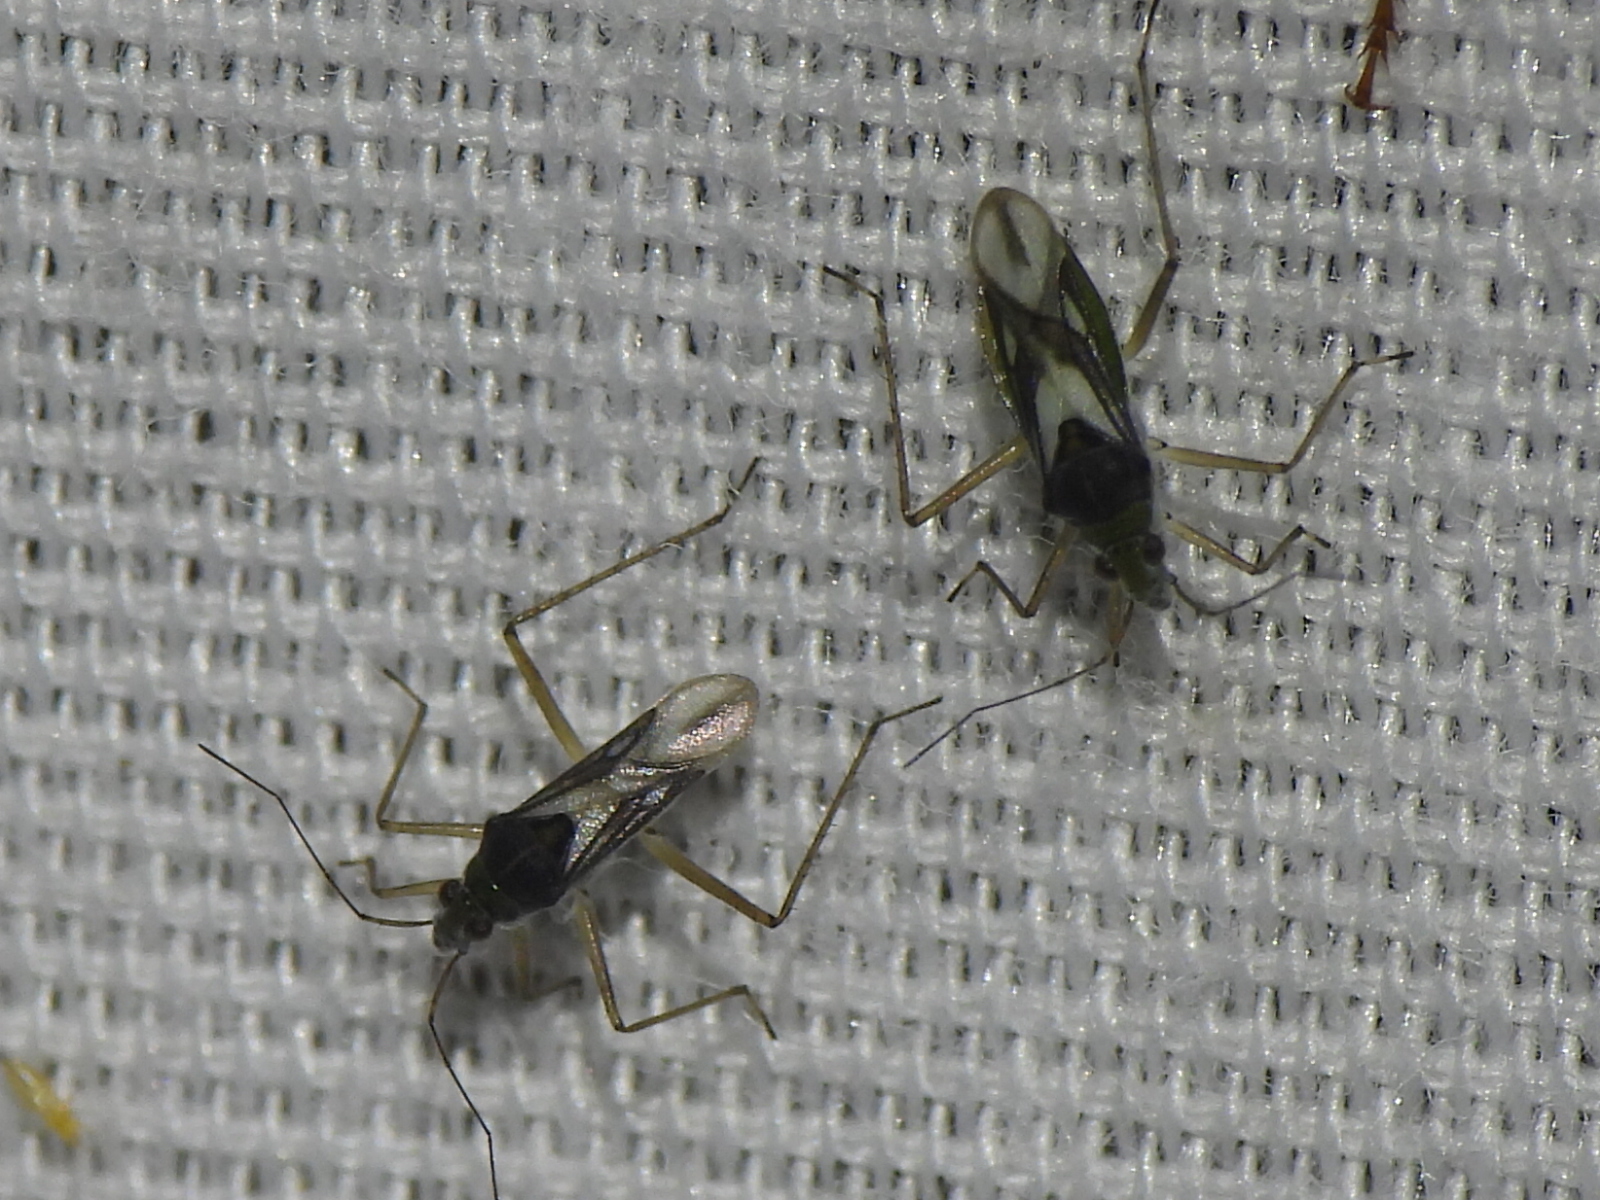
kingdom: Animalia
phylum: Arthropoda
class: Insecta
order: Hemiptera
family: Mesoveliidae
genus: Mesovelia
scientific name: Mesovelia mulsanti
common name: Water treaders
